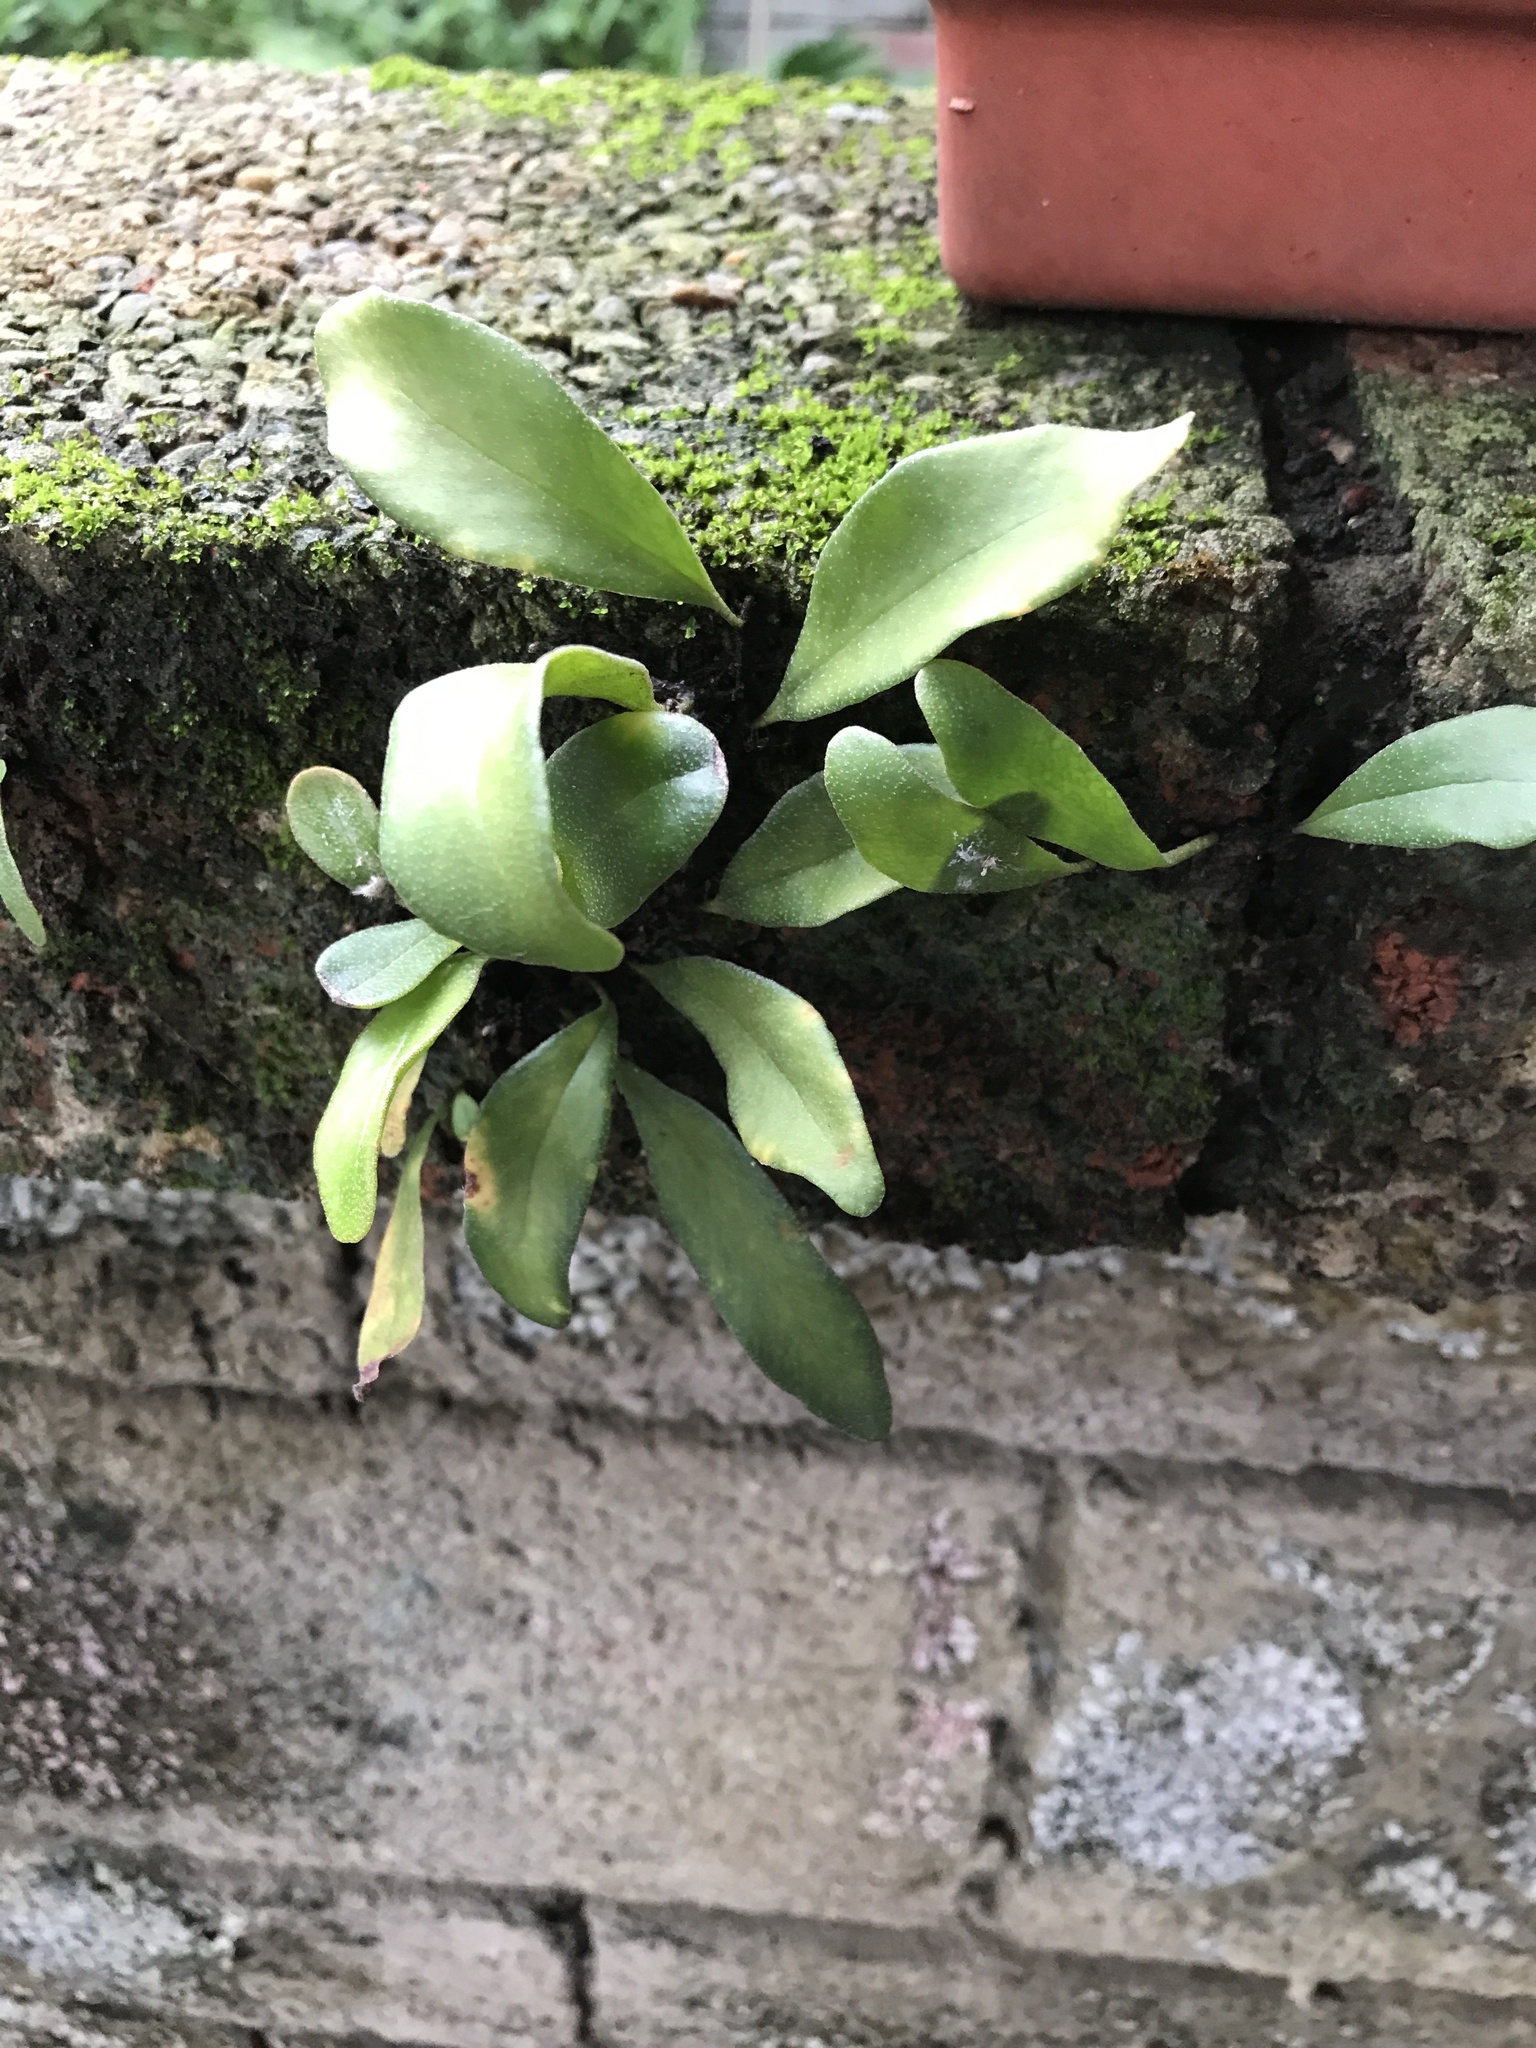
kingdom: Plantae
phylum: Tracheophyta
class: Polypodiopsida
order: Polypodiales
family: Polypodiaceae
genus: Pyrrosia
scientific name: Pyrrosia lanceolata
